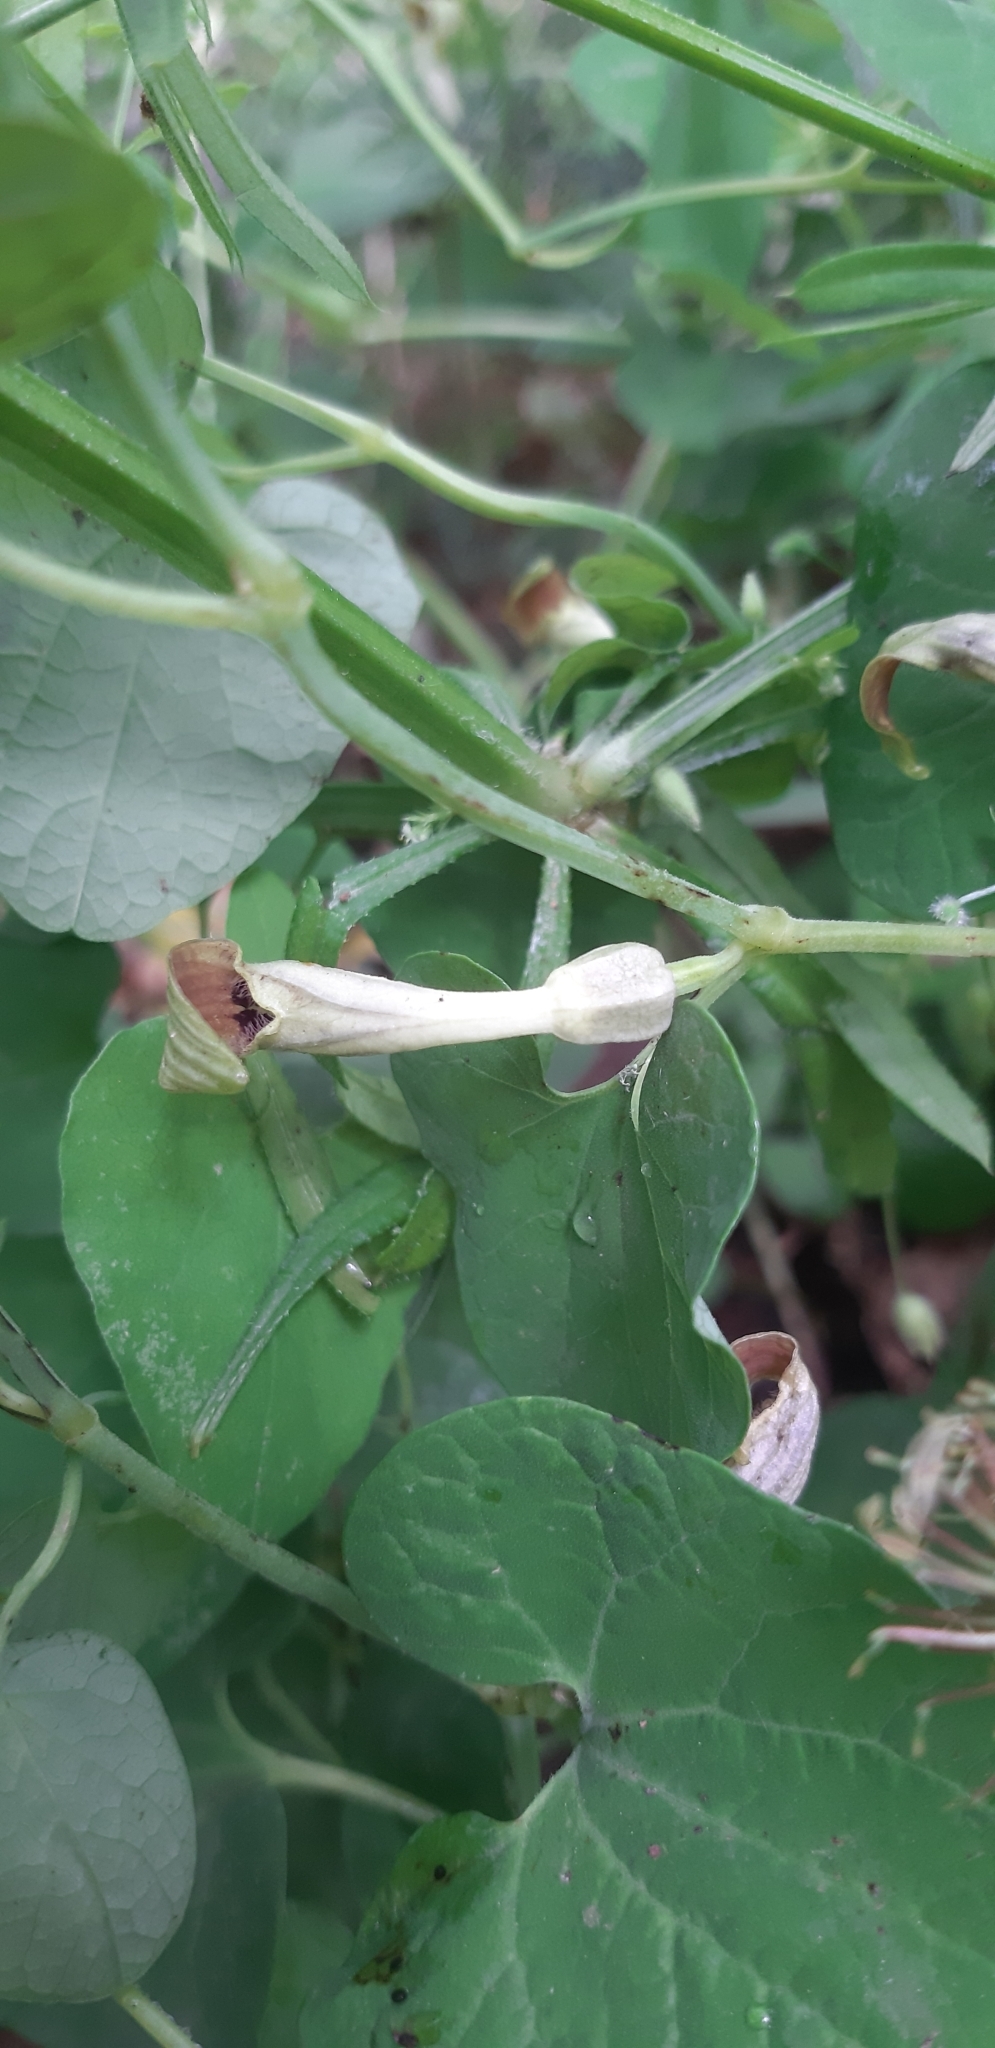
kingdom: Plantae
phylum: Tracheophyta
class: Magnoliopsida
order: Piperales
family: Aristolochiaceae
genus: Aristolochia
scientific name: Aristolochia lutea
